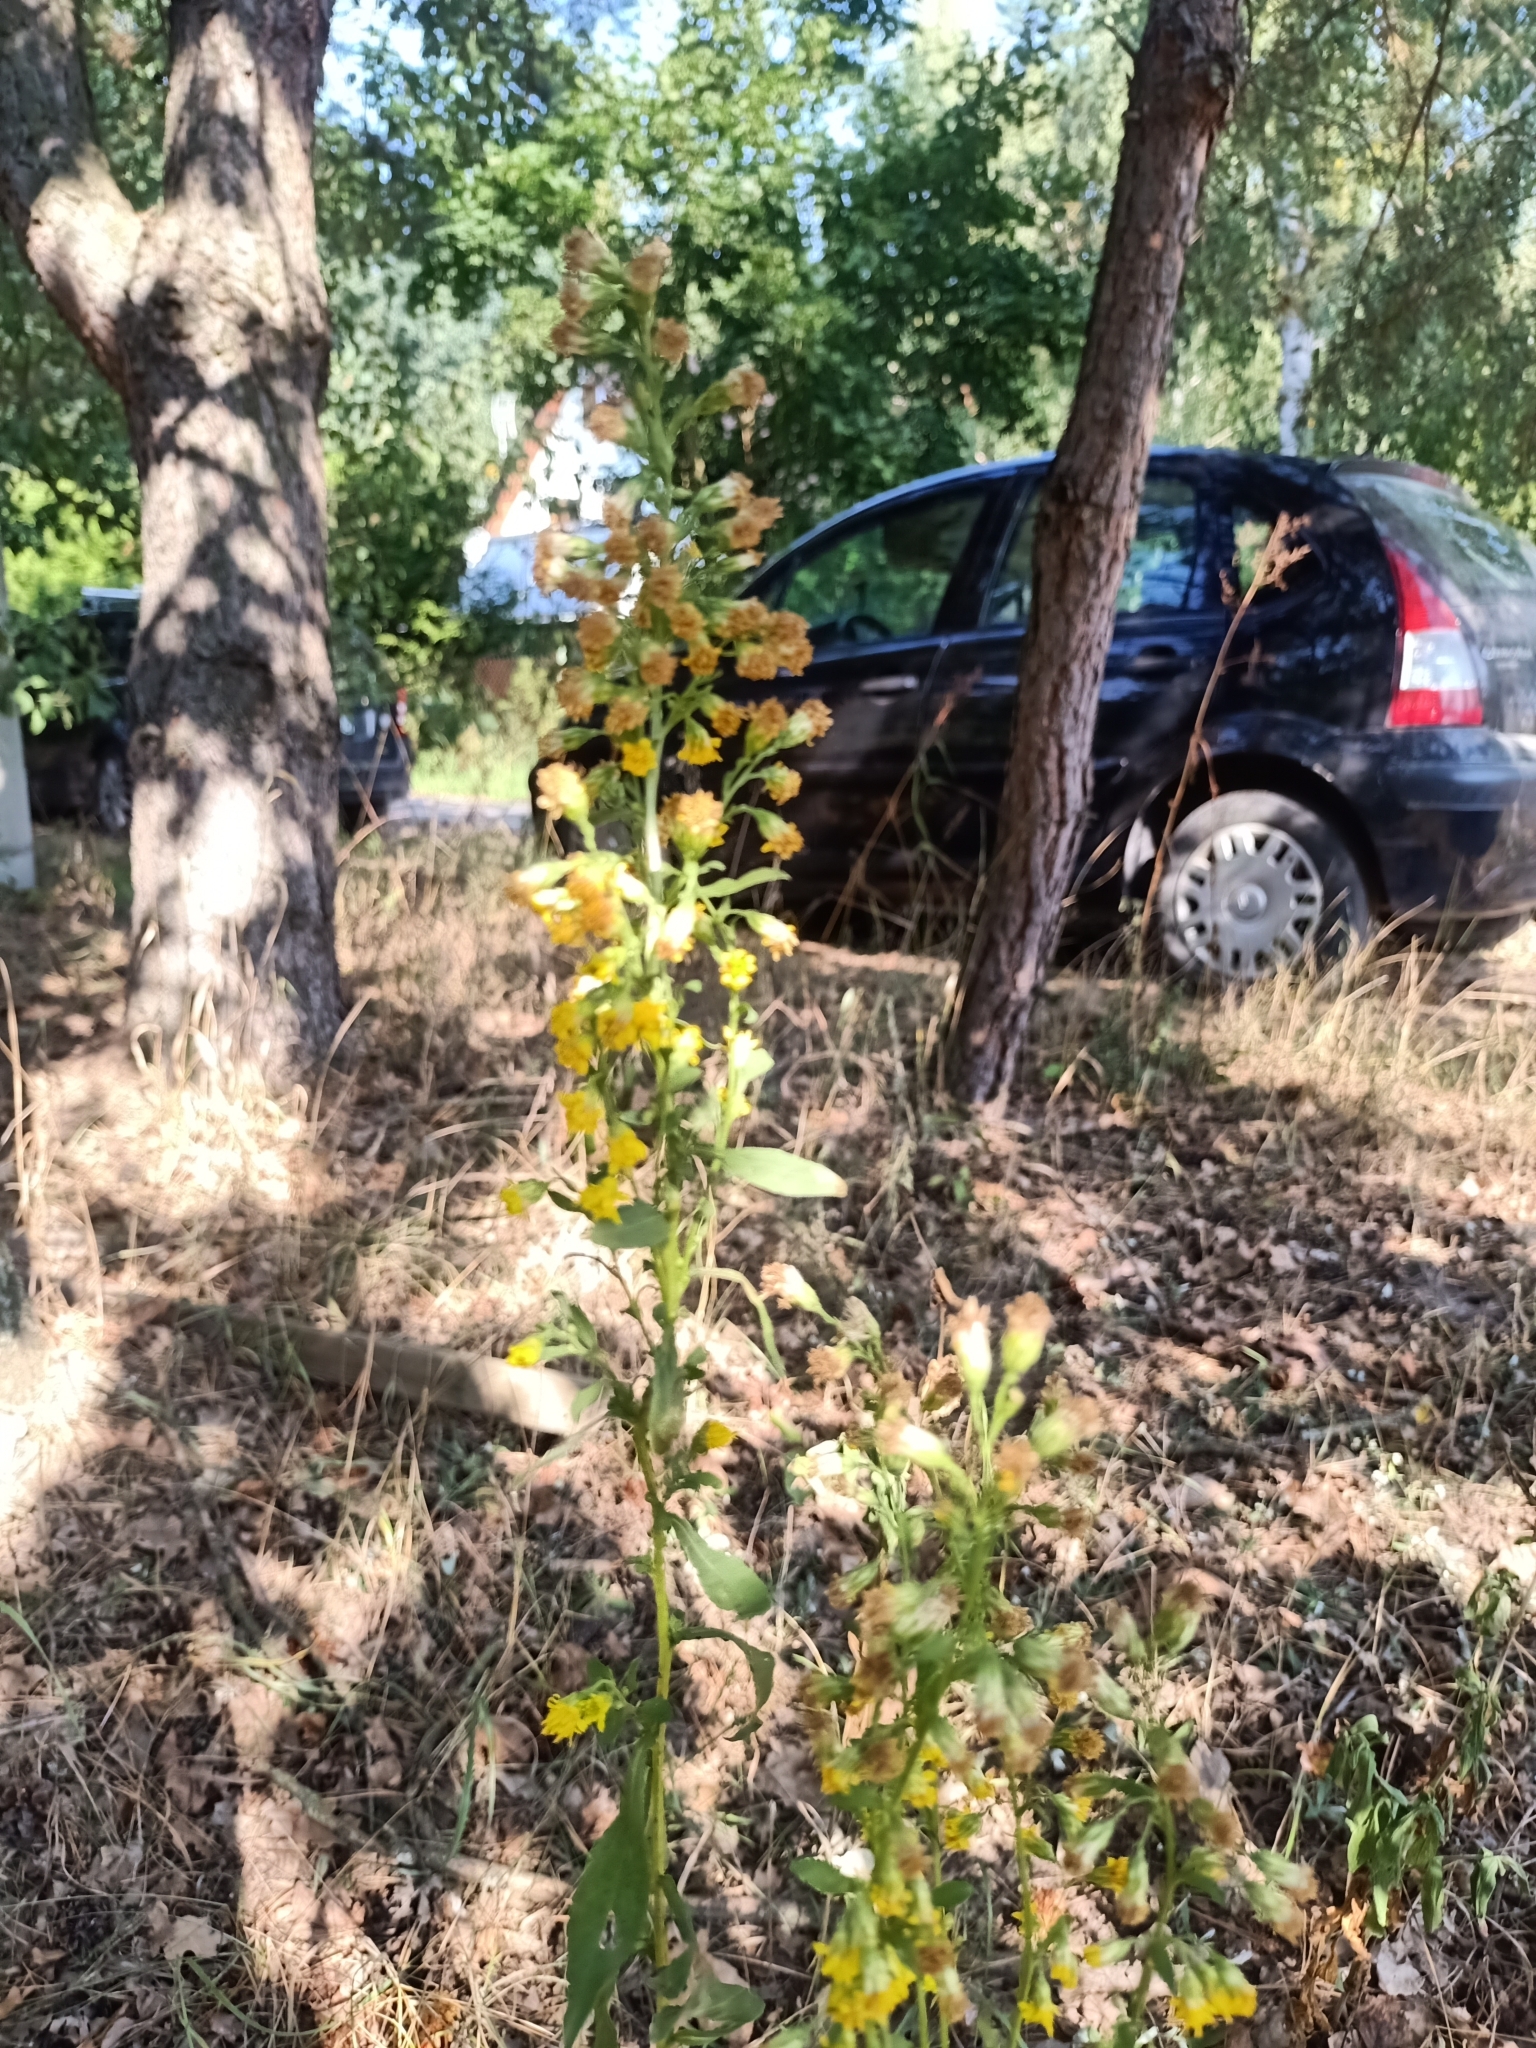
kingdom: Plantae
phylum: Tracheophyta
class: Magnoliopsida
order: Asterales
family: Asteraceae
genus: Solidago
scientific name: Solidago virgaurea
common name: Goldenrod
